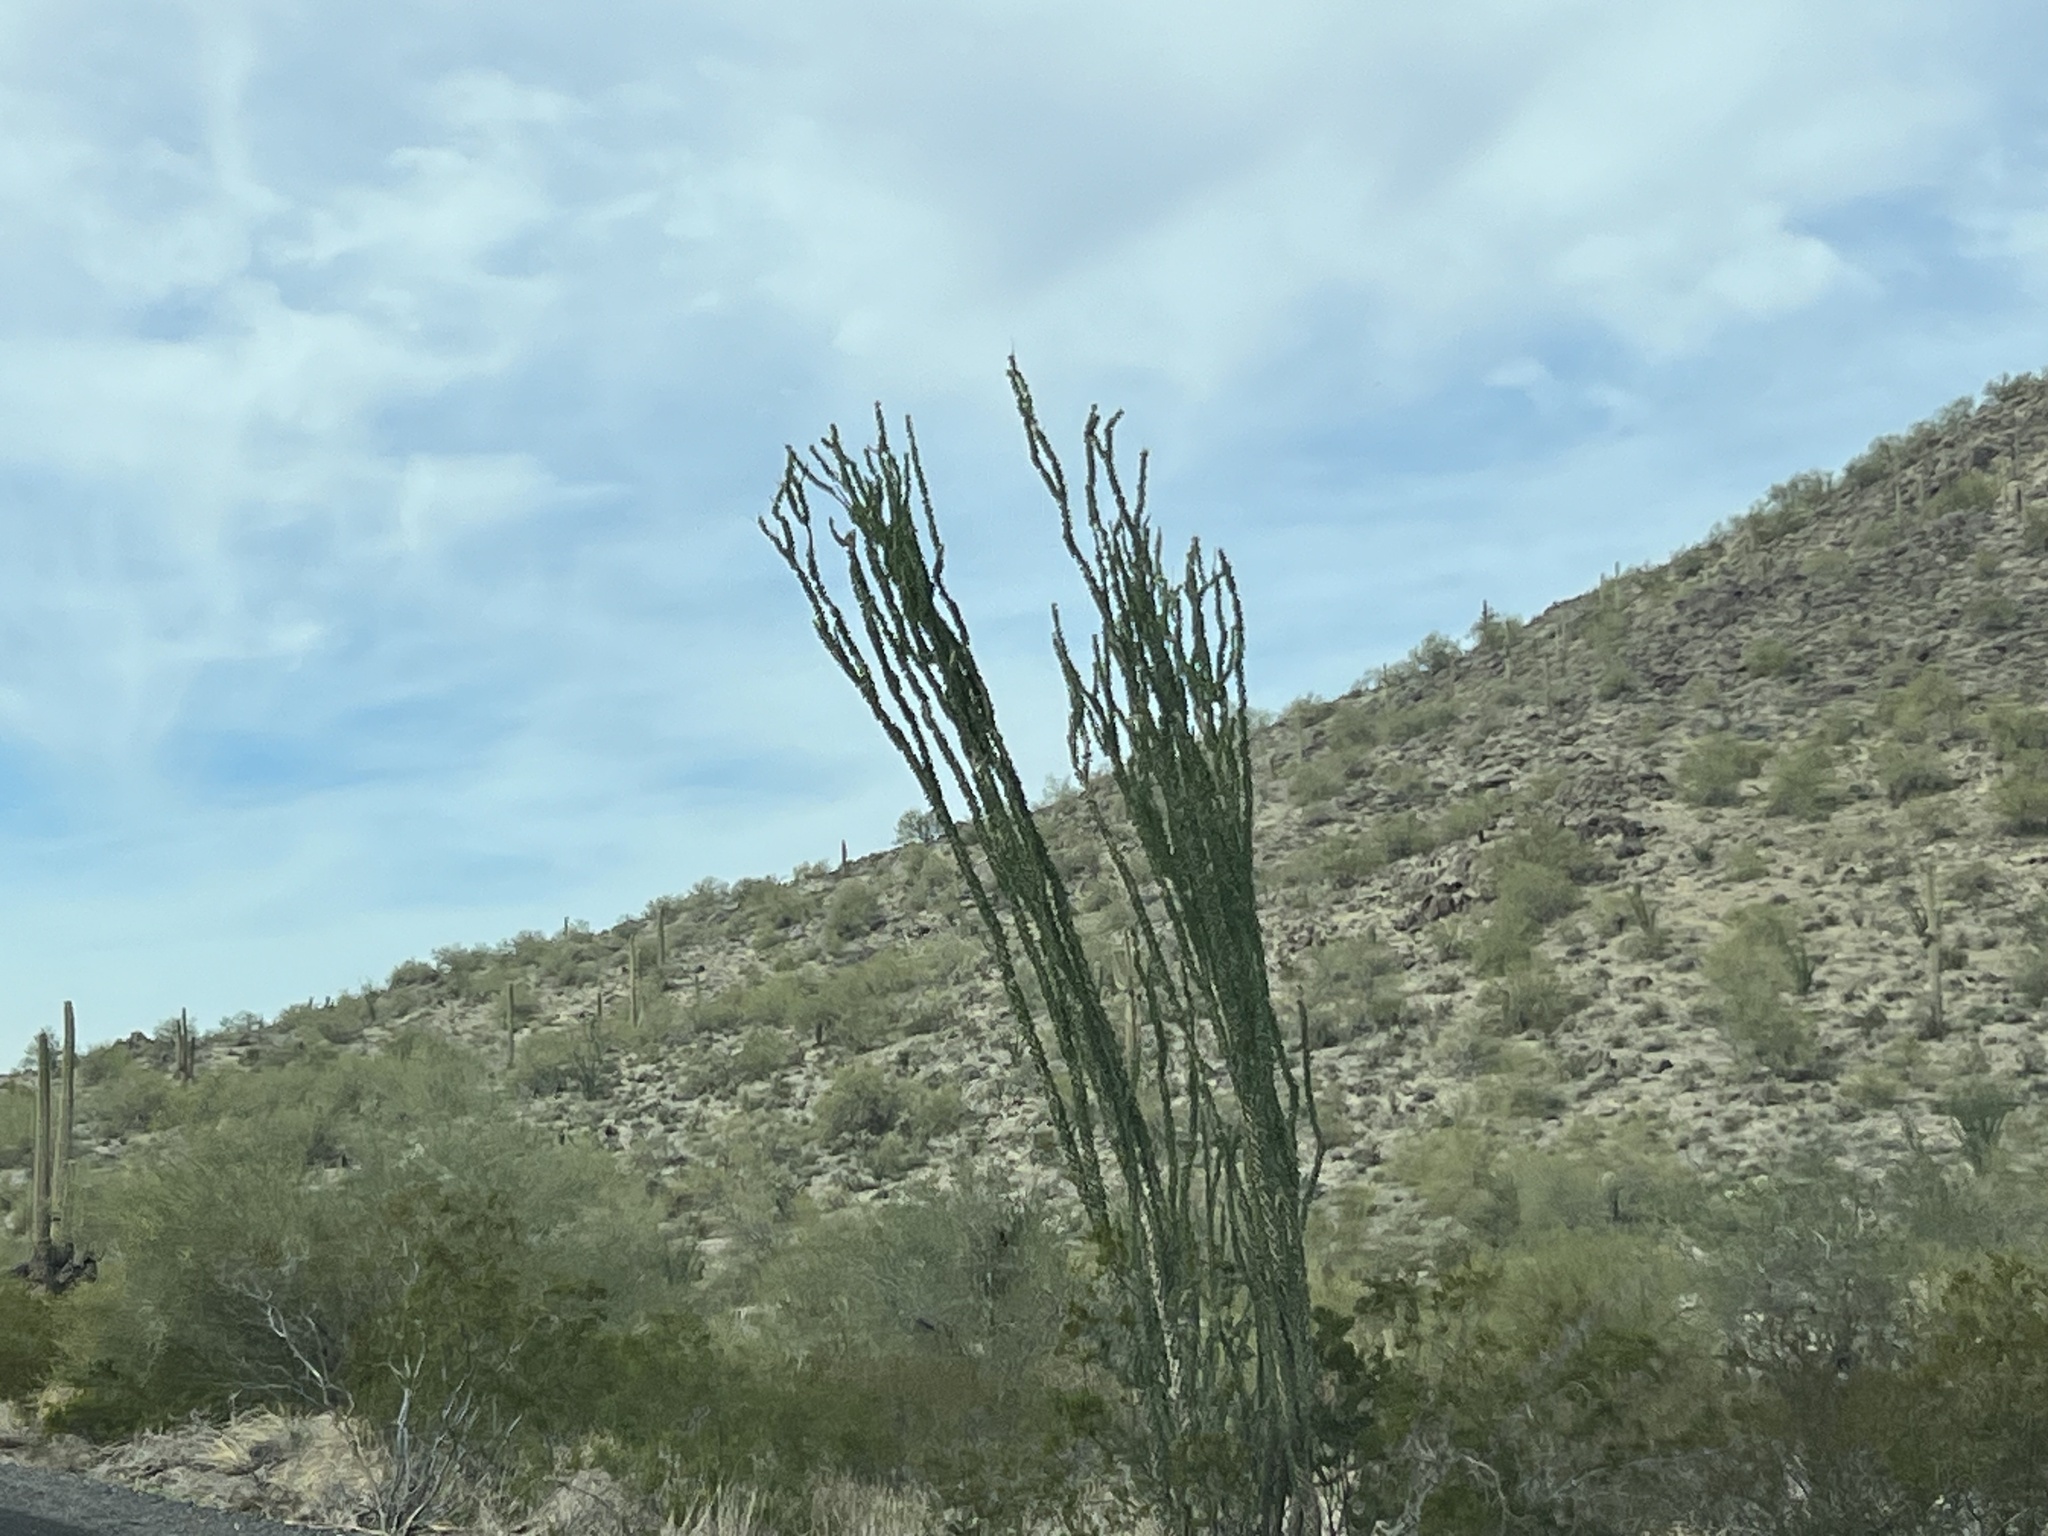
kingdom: Plantae
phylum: Tracheophyta
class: Magnoliopsida
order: Ericales
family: Fouquieriaceae
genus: Fouquieria
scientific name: Fouquieria splendens
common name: Vine-cactus
